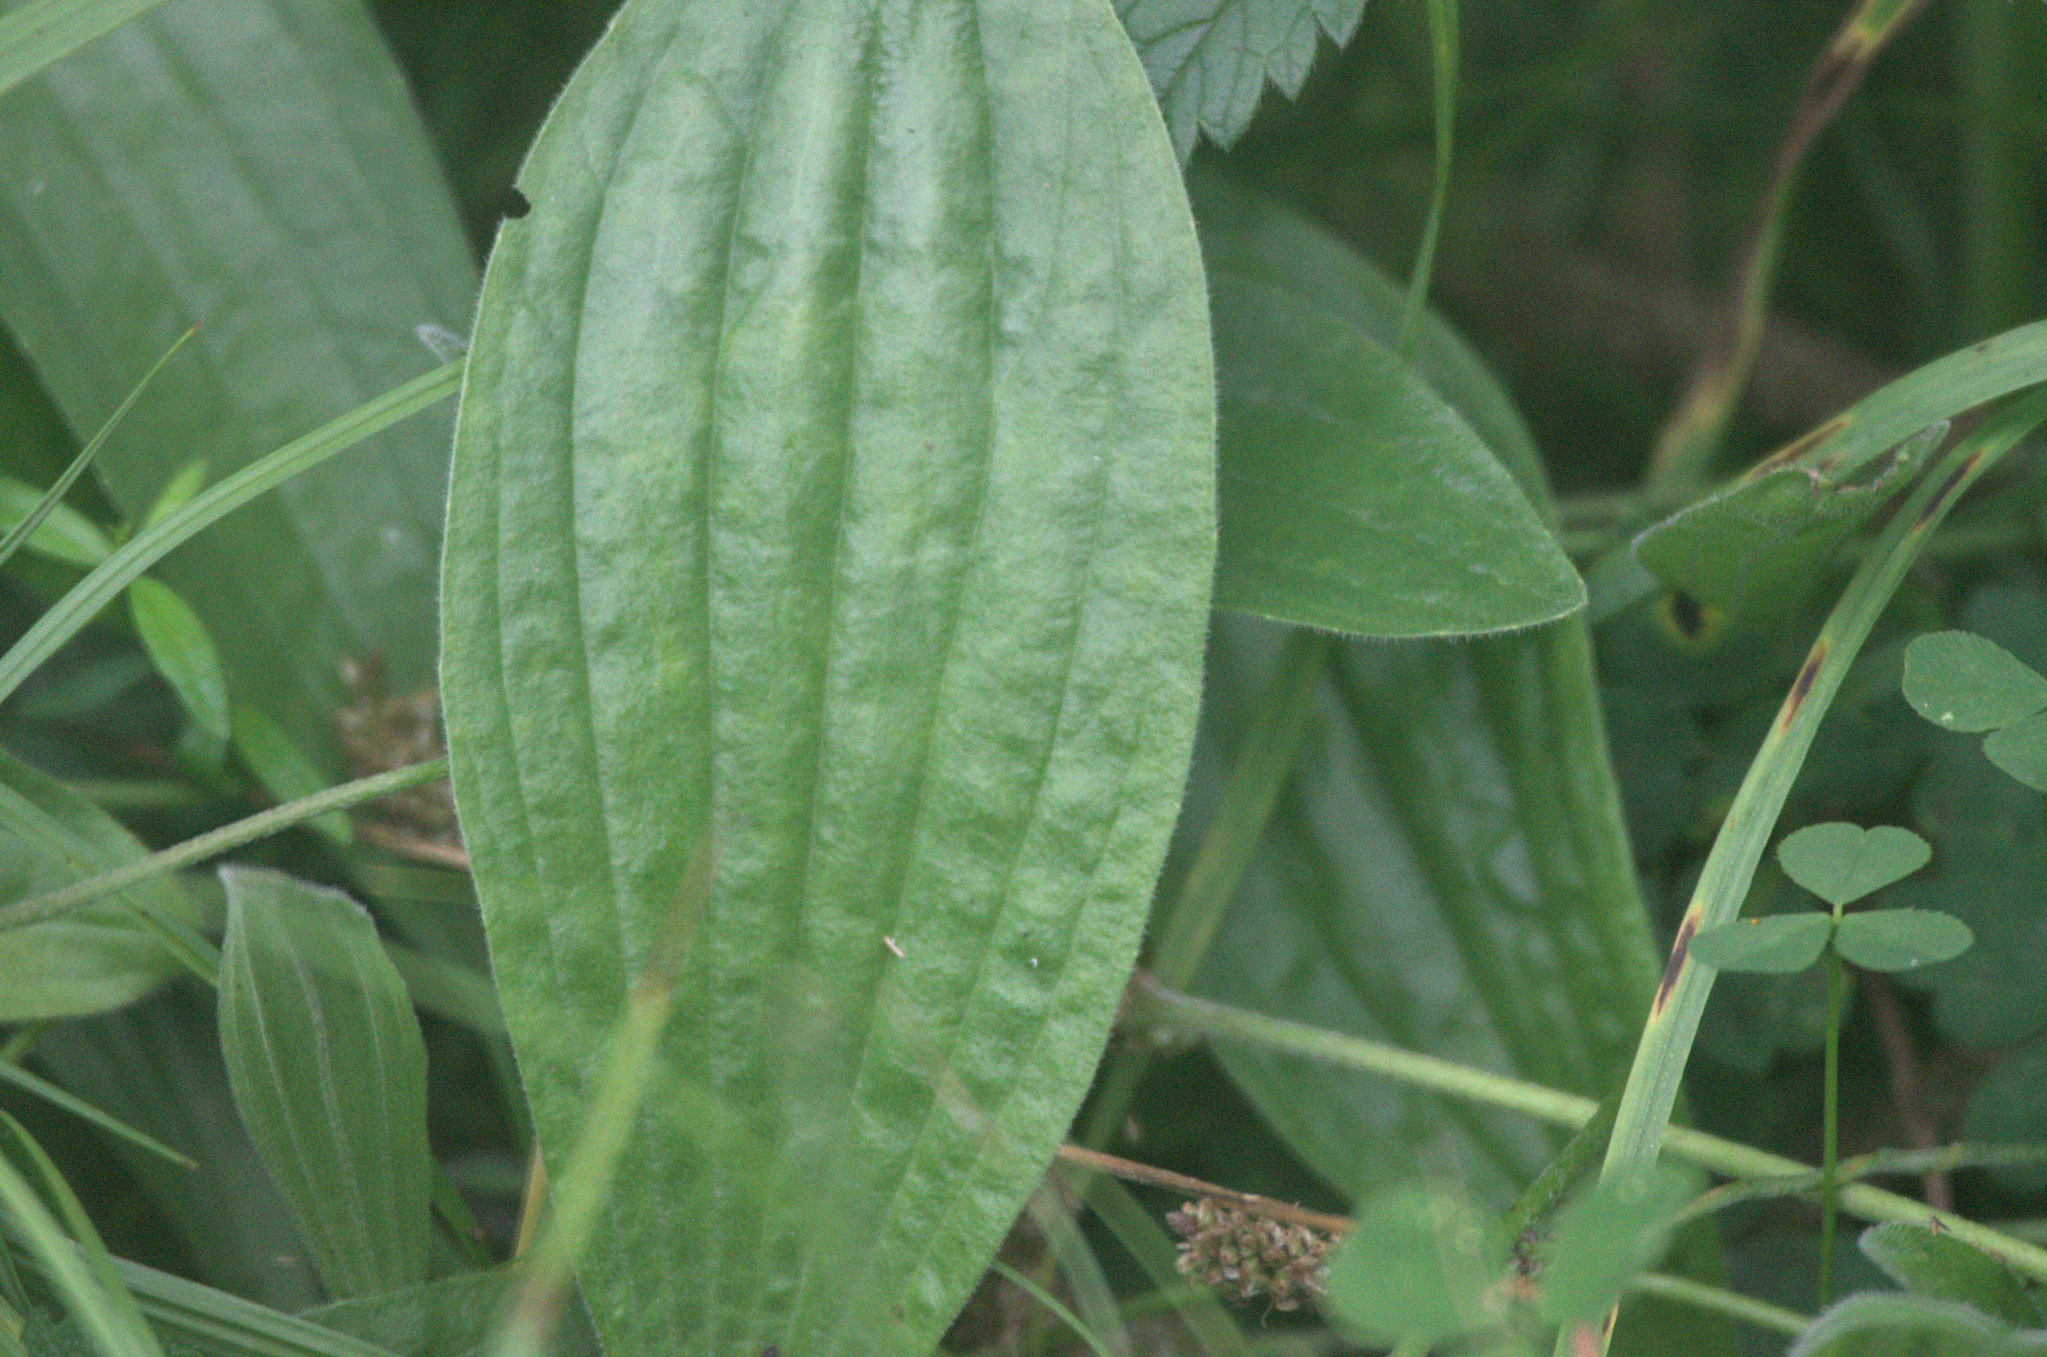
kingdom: Plantae
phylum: Tracheophyta
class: Magnoliopsida
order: Lamiales
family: Plantaginaceae
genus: Plantago
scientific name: Plantago urvillei
